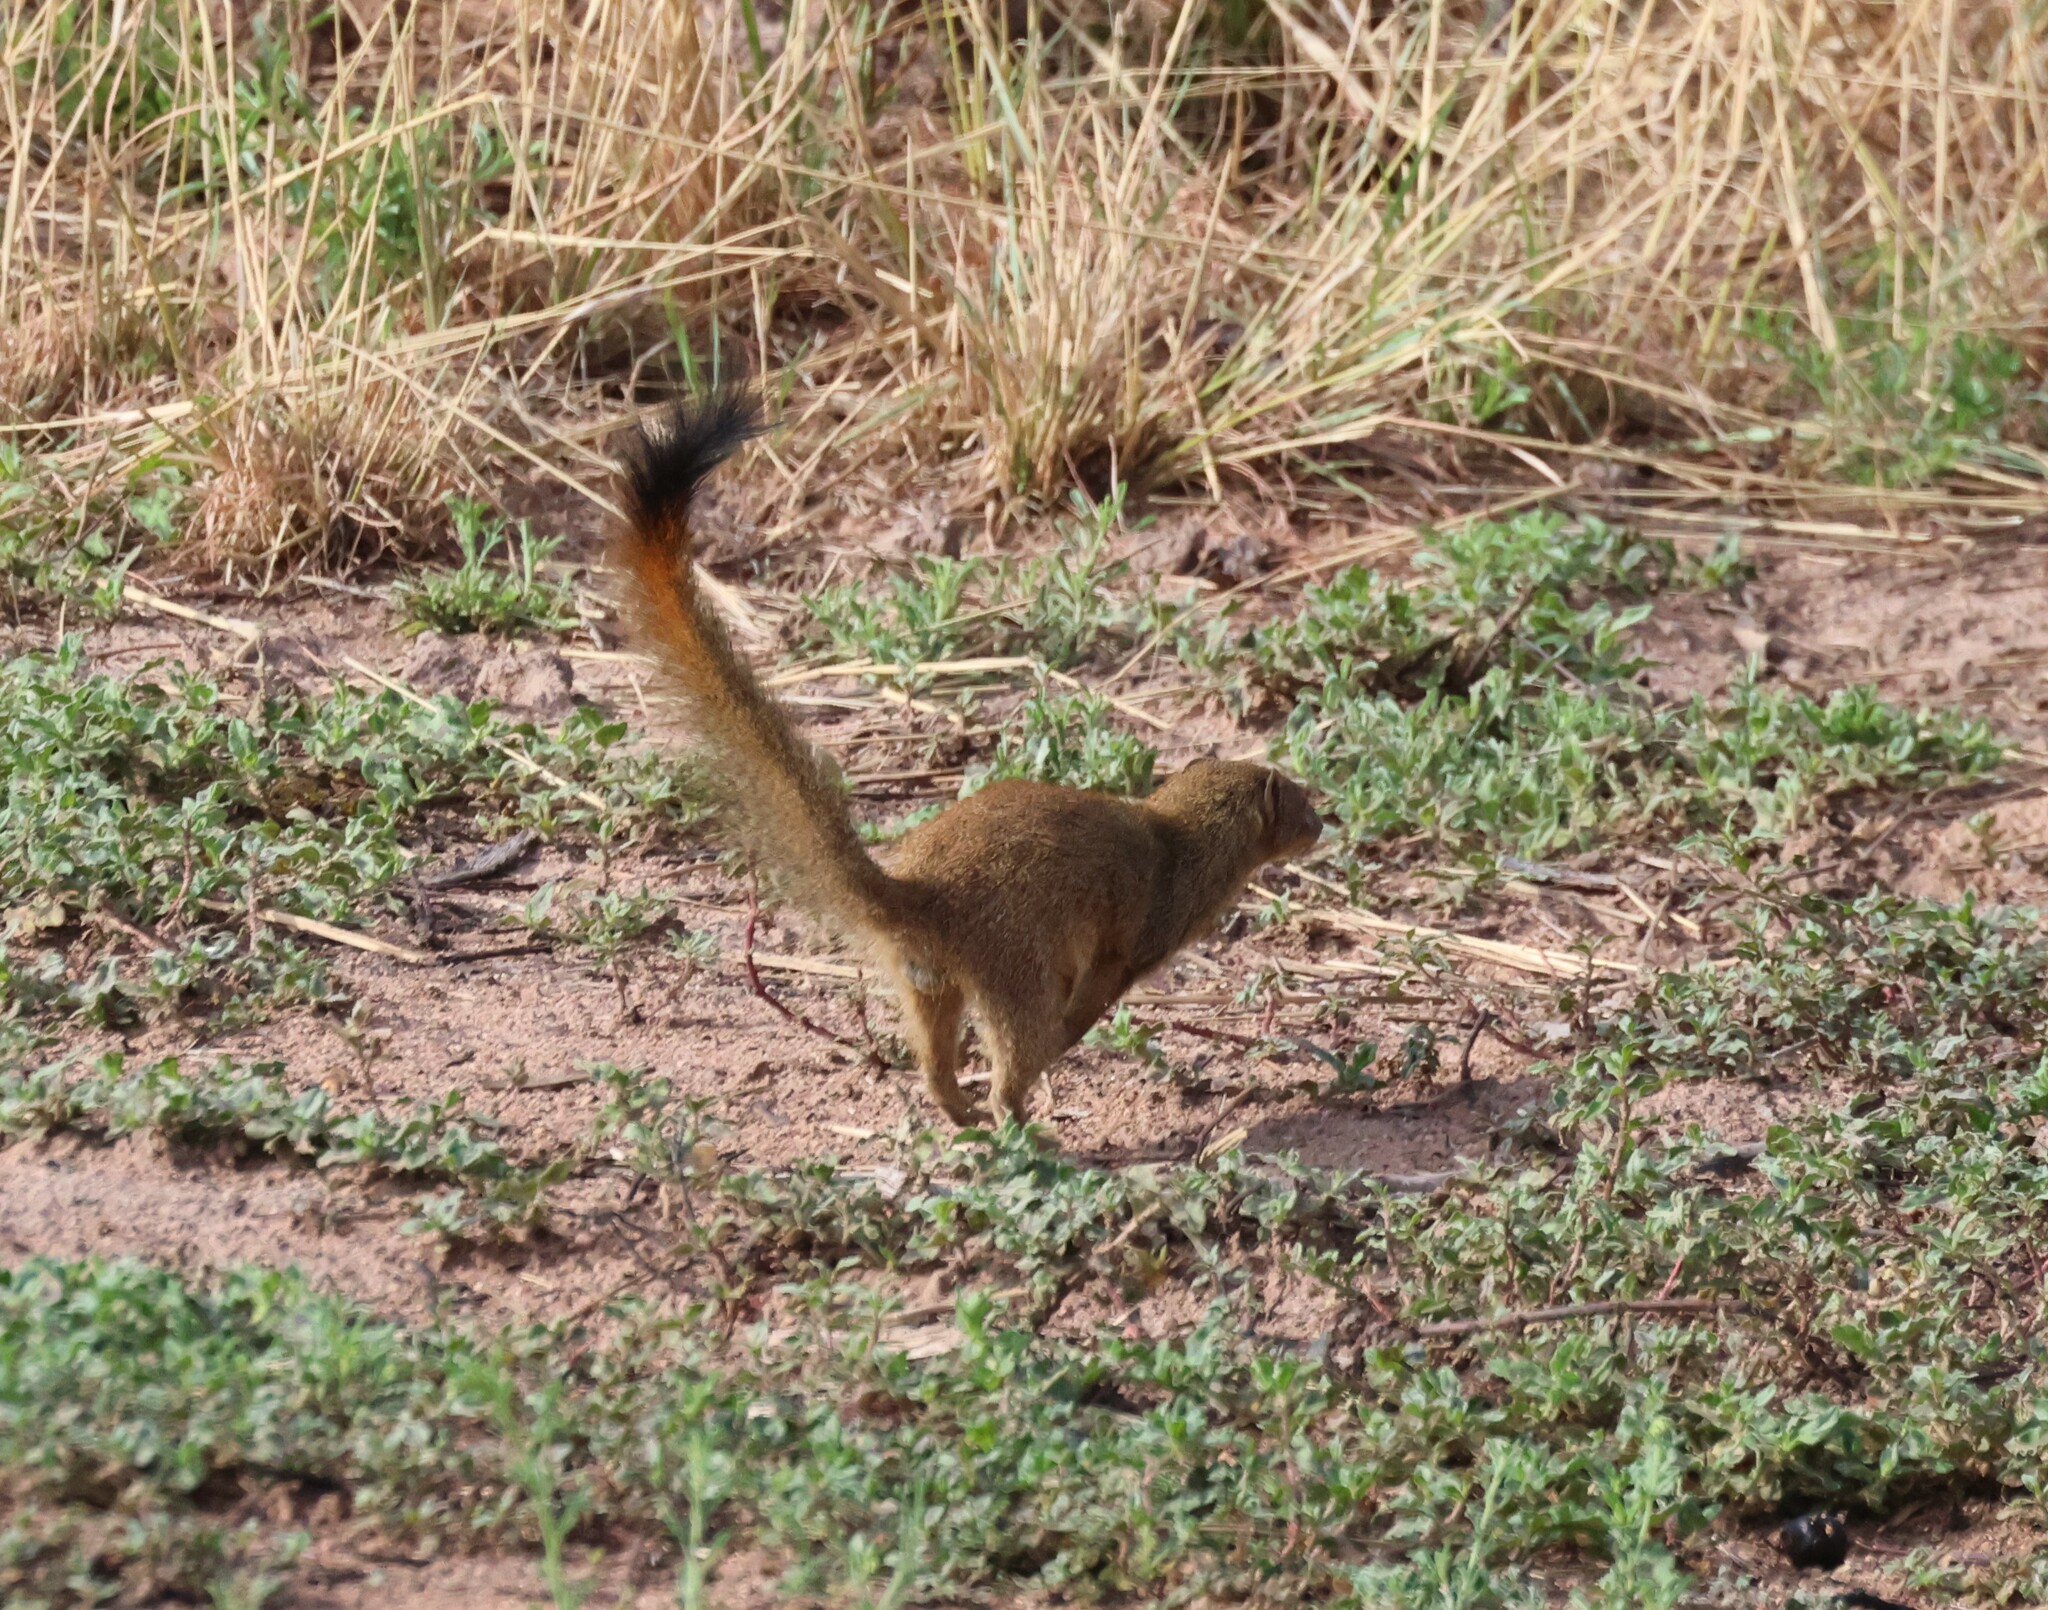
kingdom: Animalia
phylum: Chordata
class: Mammalia
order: Carnivora
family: Herpestidae
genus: Galerella
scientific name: Galerella sanguinea
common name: Slender mongoose
